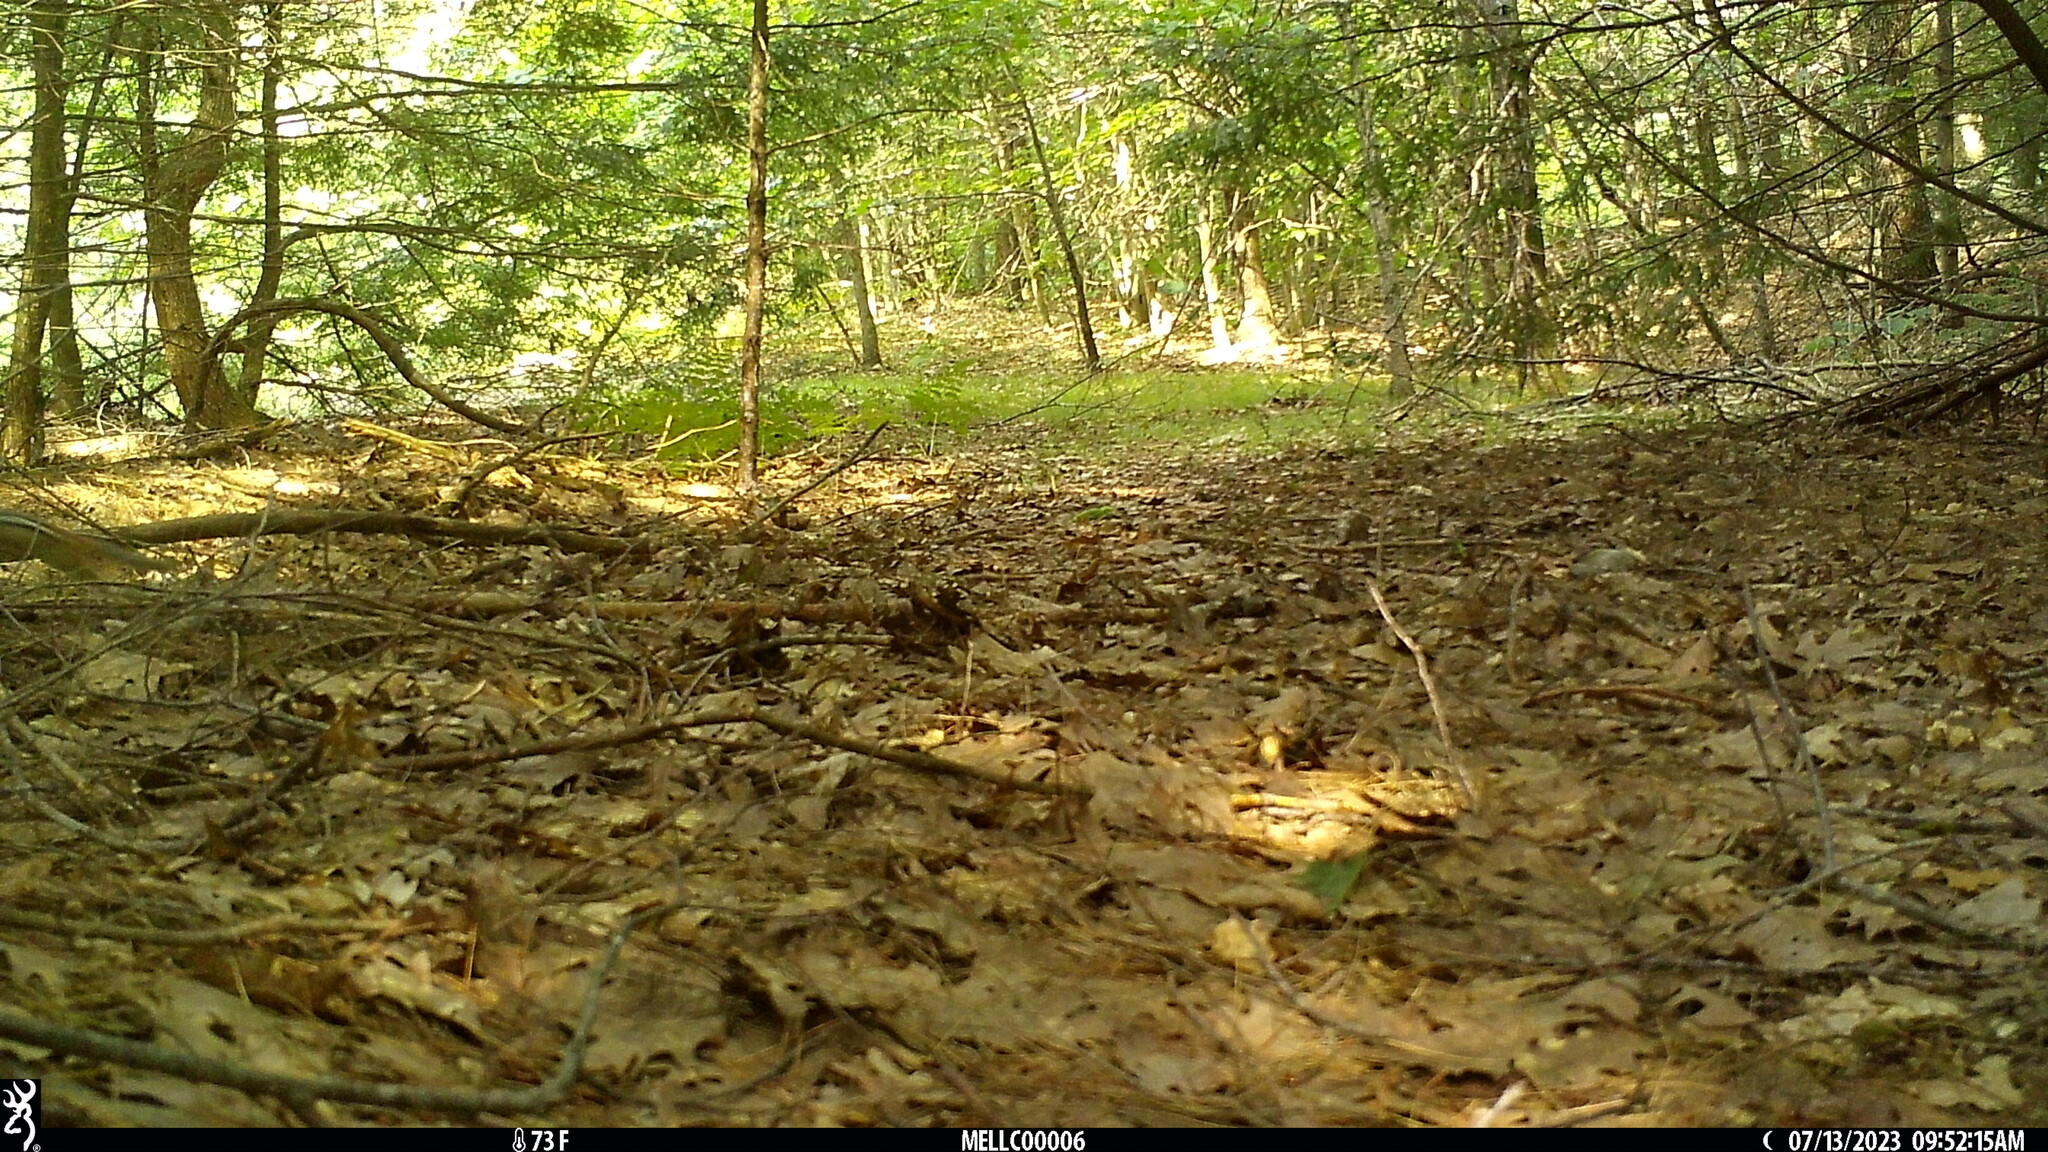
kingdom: Animalia
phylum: Chordata
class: Mammalia
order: Rodentia
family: Sciuridae
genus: Tamias
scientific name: Tamias striatus
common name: Eastern chipmunk
